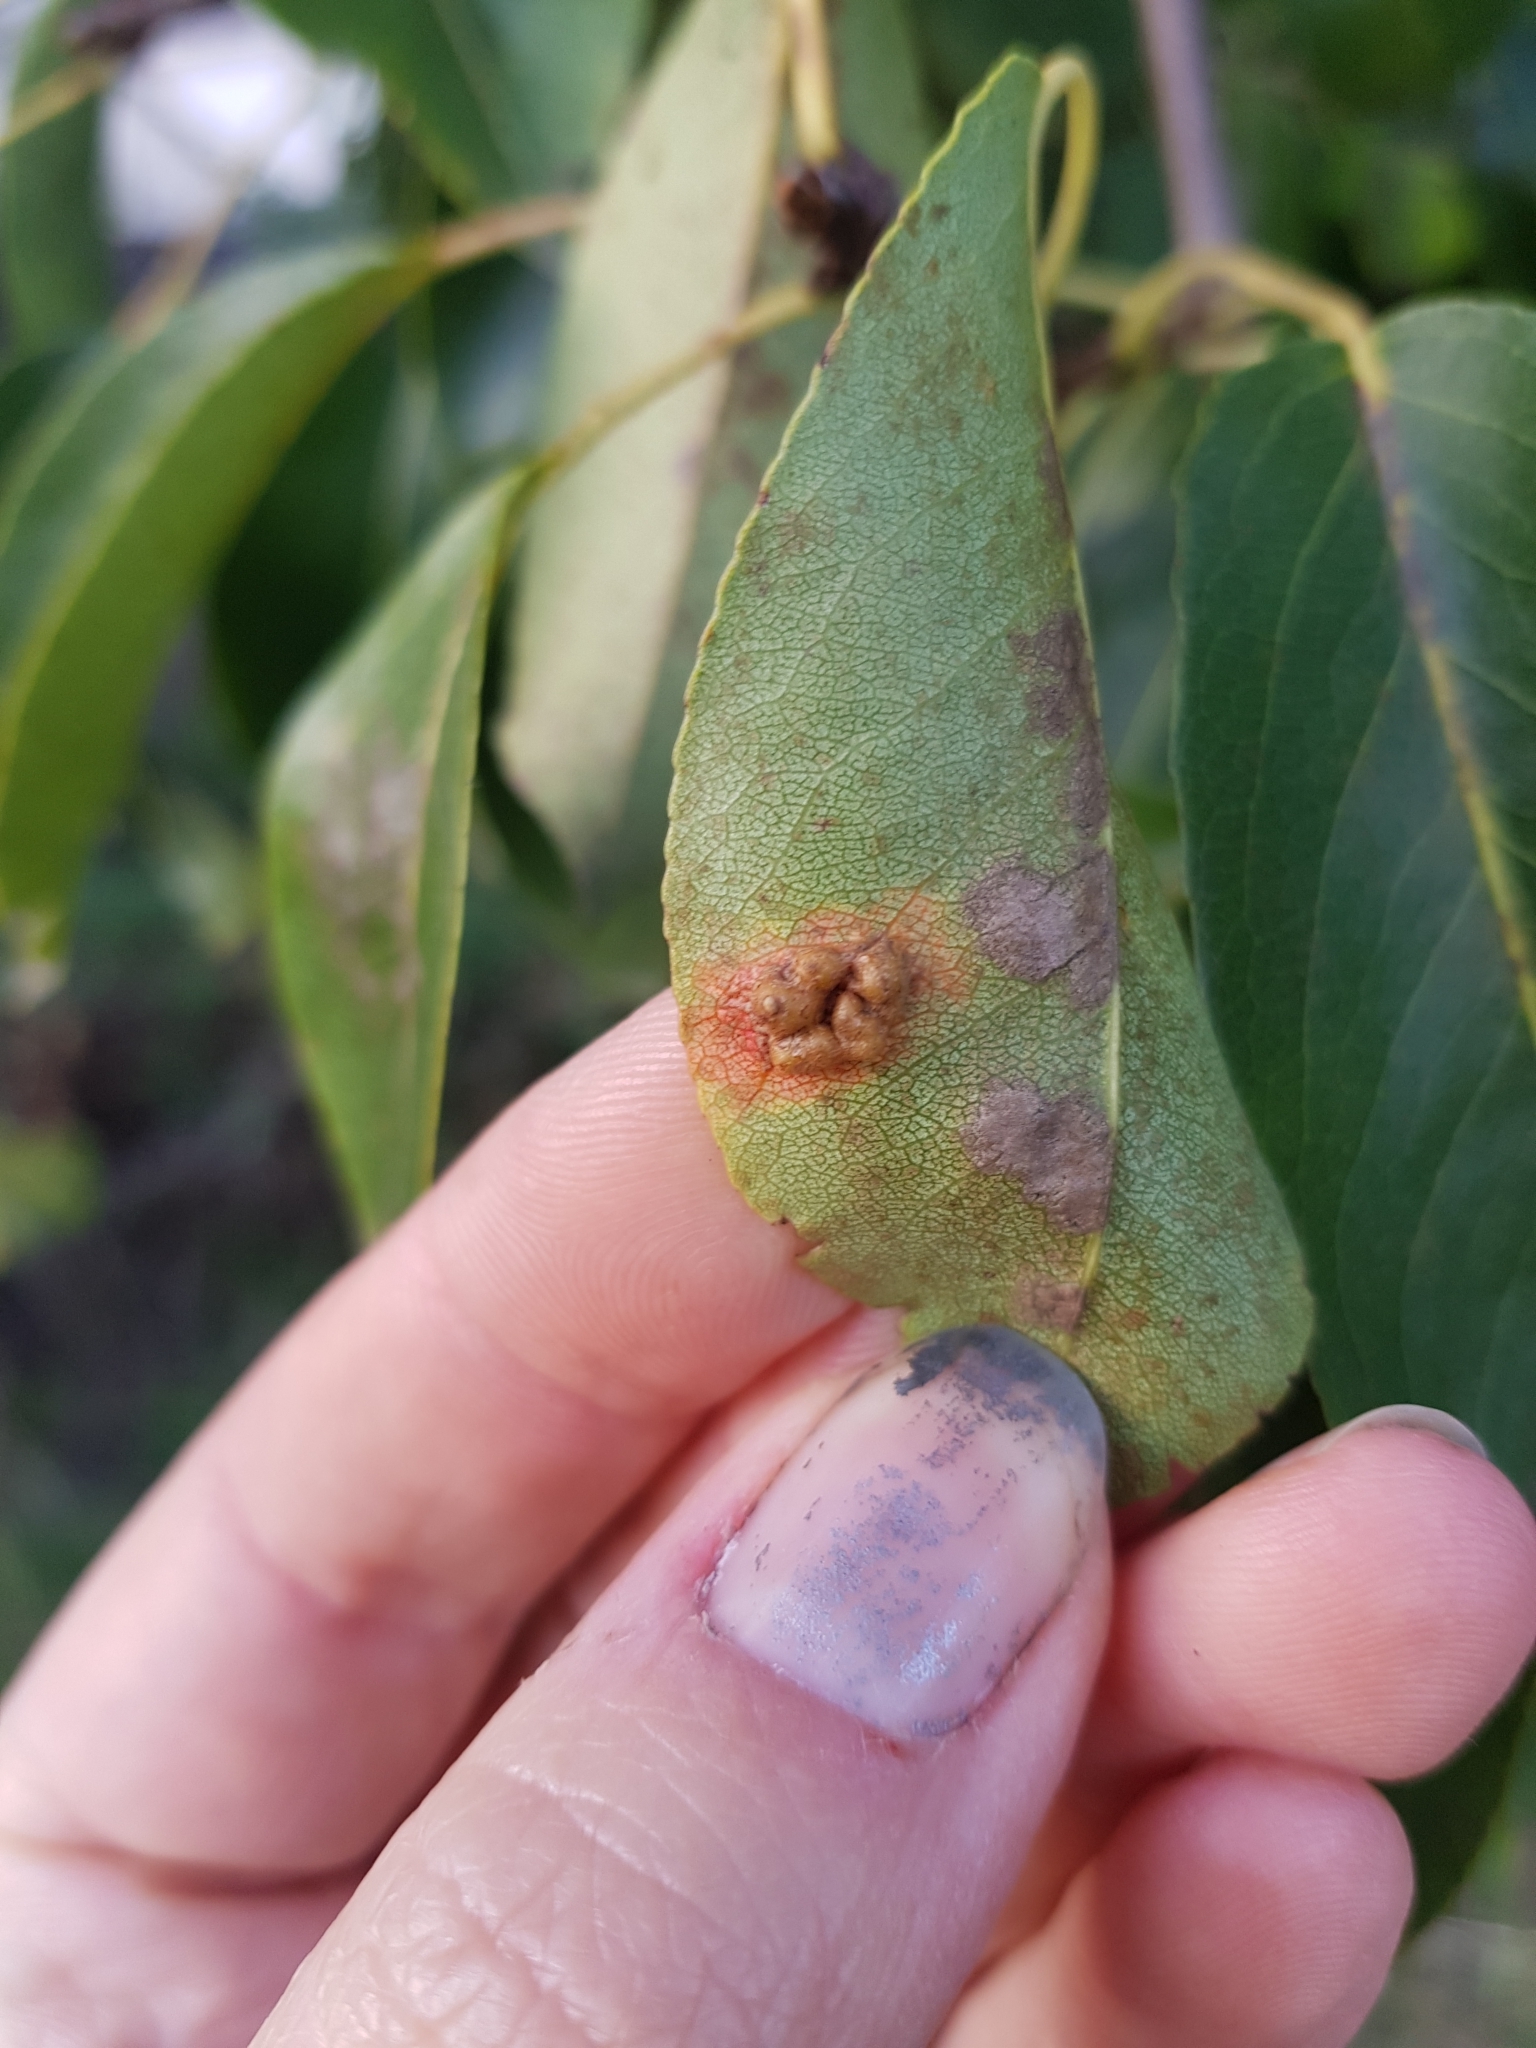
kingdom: Fungi
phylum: Basidiomycota
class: Pucciniomycetes
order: Pucciniales
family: Gymnosporangiaceae
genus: Gymnosporangium
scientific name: Gymnosporangium sabinae
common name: Pear trellis rust fungus
